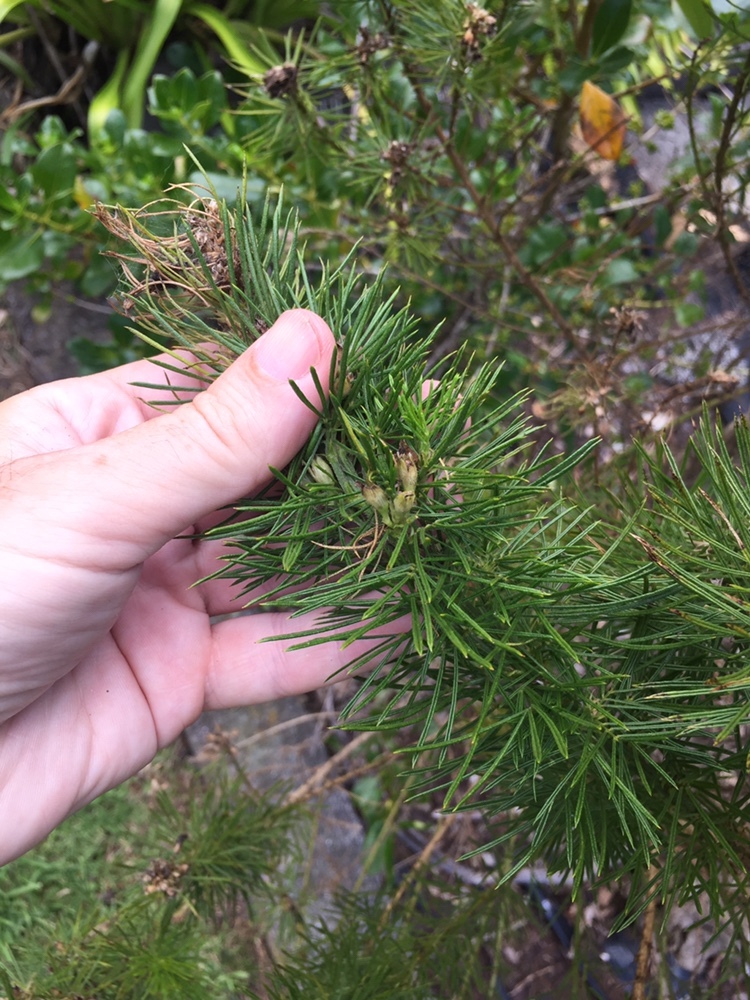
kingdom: Plantae
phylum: Tracheophyta
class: Magnoliopsida
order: Fabales
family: Fabaceae
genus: Psoralea
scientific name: Psoralea pinnata
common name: African scurfpea
